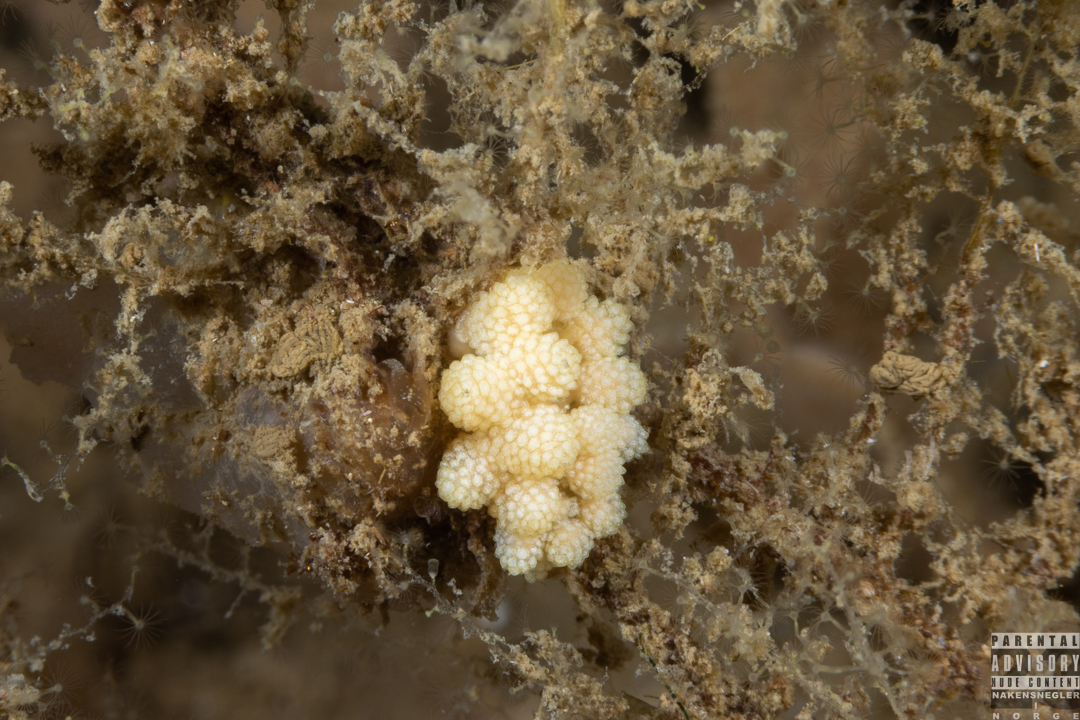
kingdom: Animalia
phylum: Mollusca
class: Gastropoda
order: Nudibranchia
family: Dotidae
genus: Doto
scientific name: Doto fragilis
